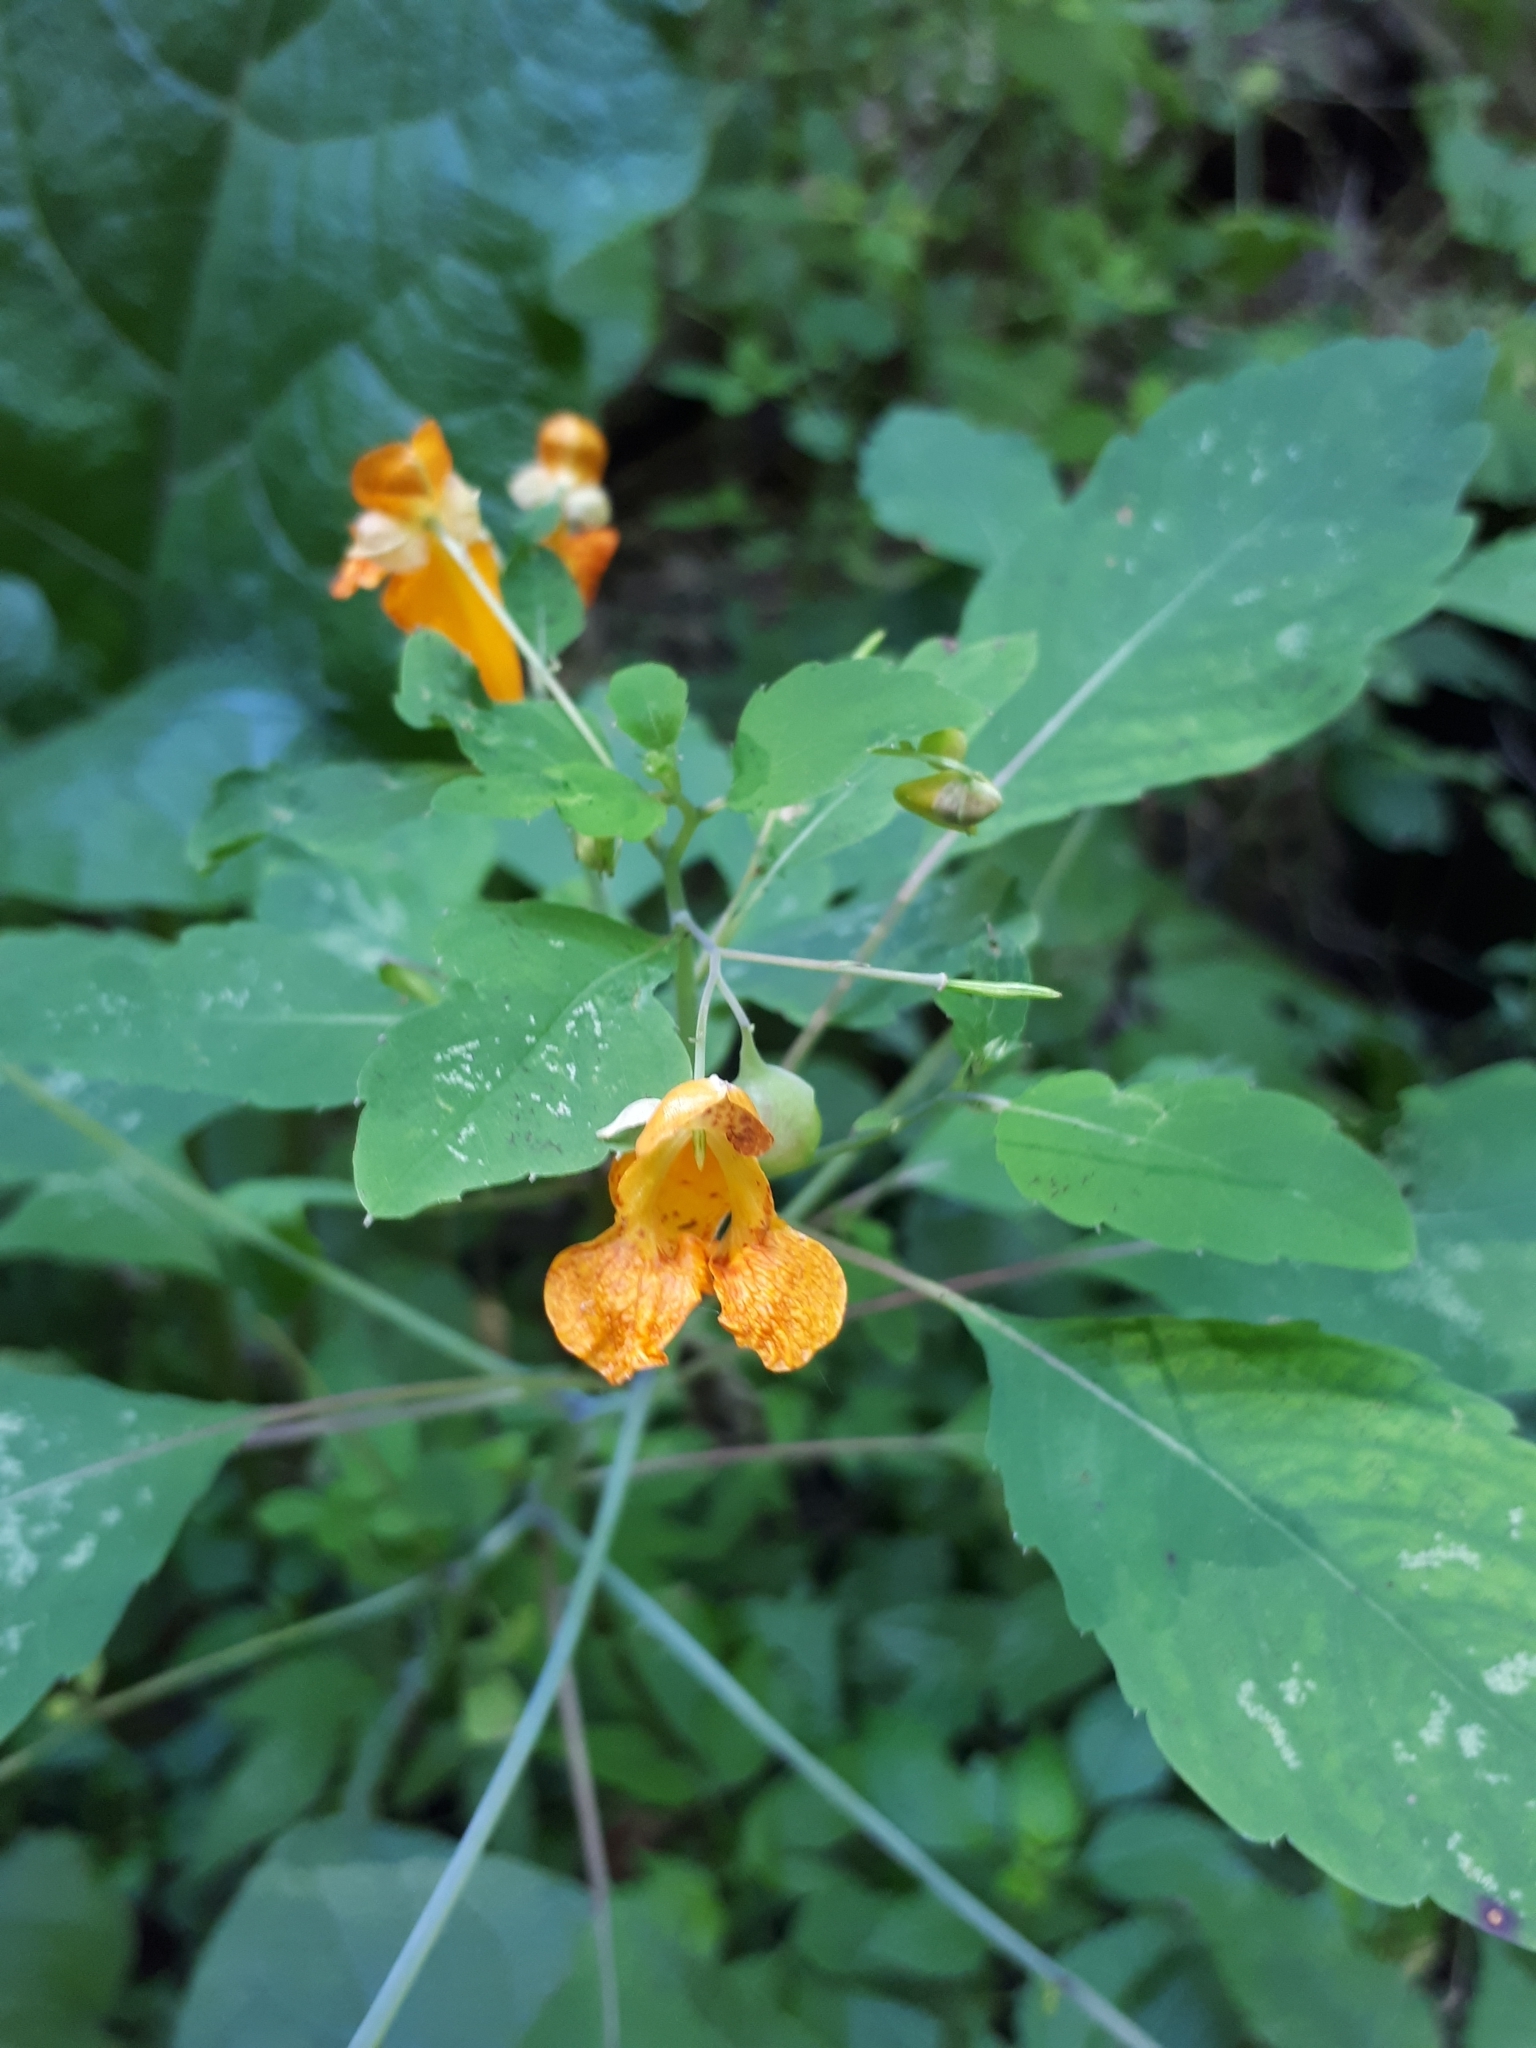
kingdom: Plantae
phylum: Tracheophyta
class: Magnoliopsida
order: Ericales
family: Balsaminaceae
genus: Impatiens
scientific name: Impatiens capensis
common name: Orange balsam
